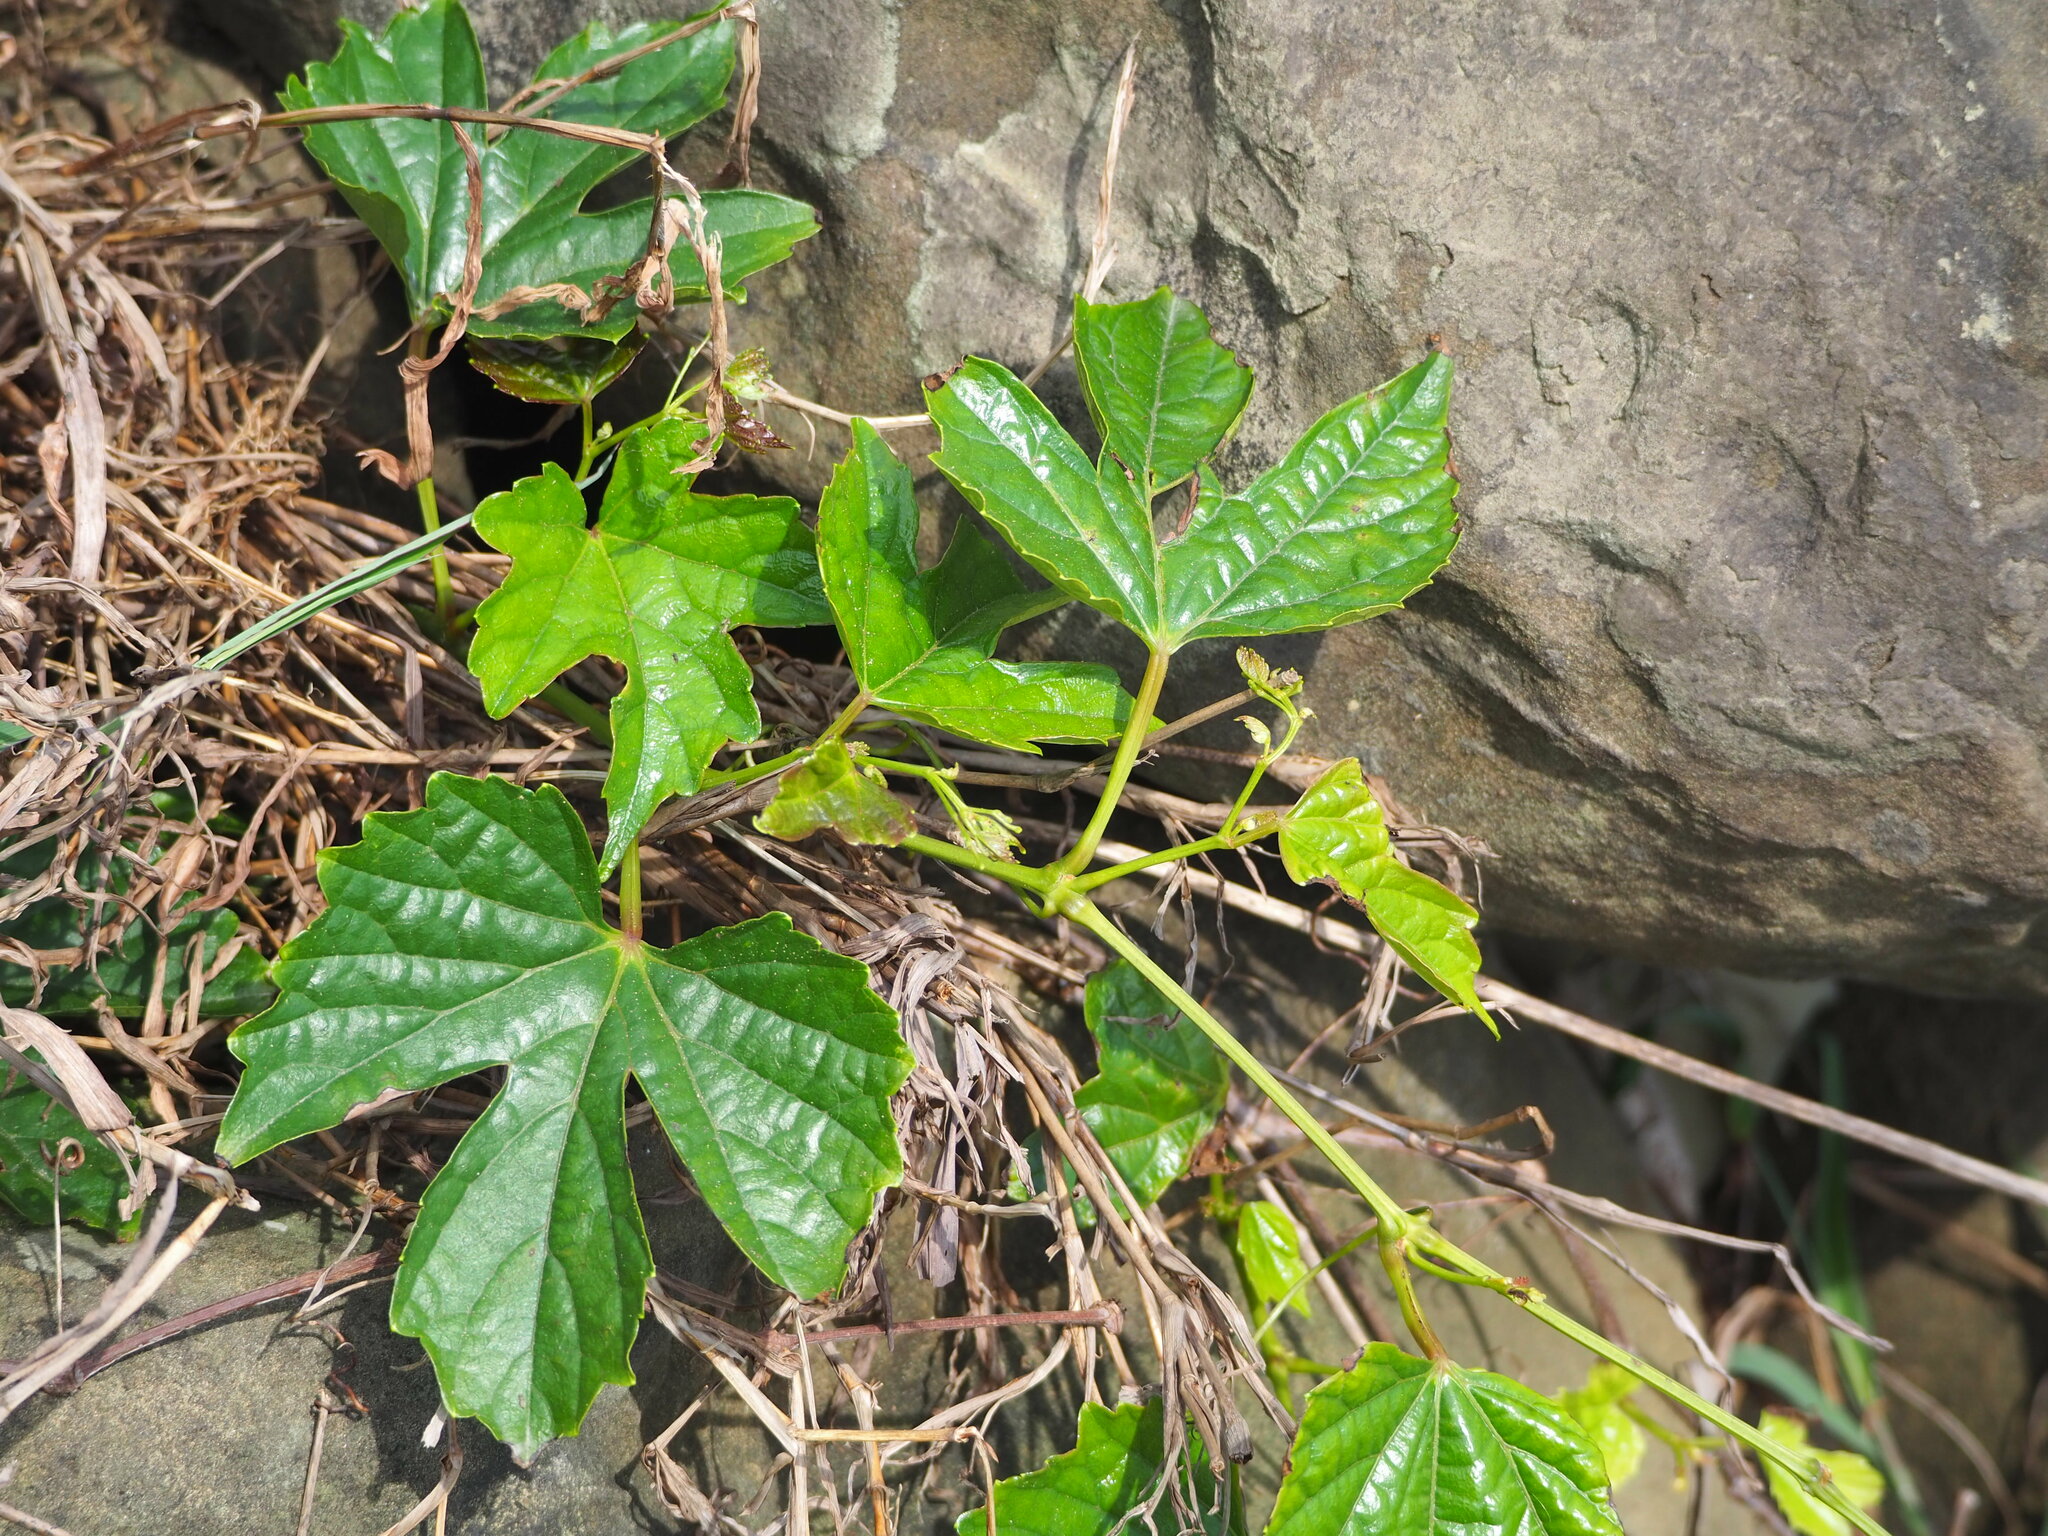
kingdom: Plantae
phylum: Tracheophyta
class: Magnoliopsida
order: Vitales
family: Vitaceae
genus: Ampelopsis
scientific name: Ampelopsis glandulosa
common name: Amur peppervine
